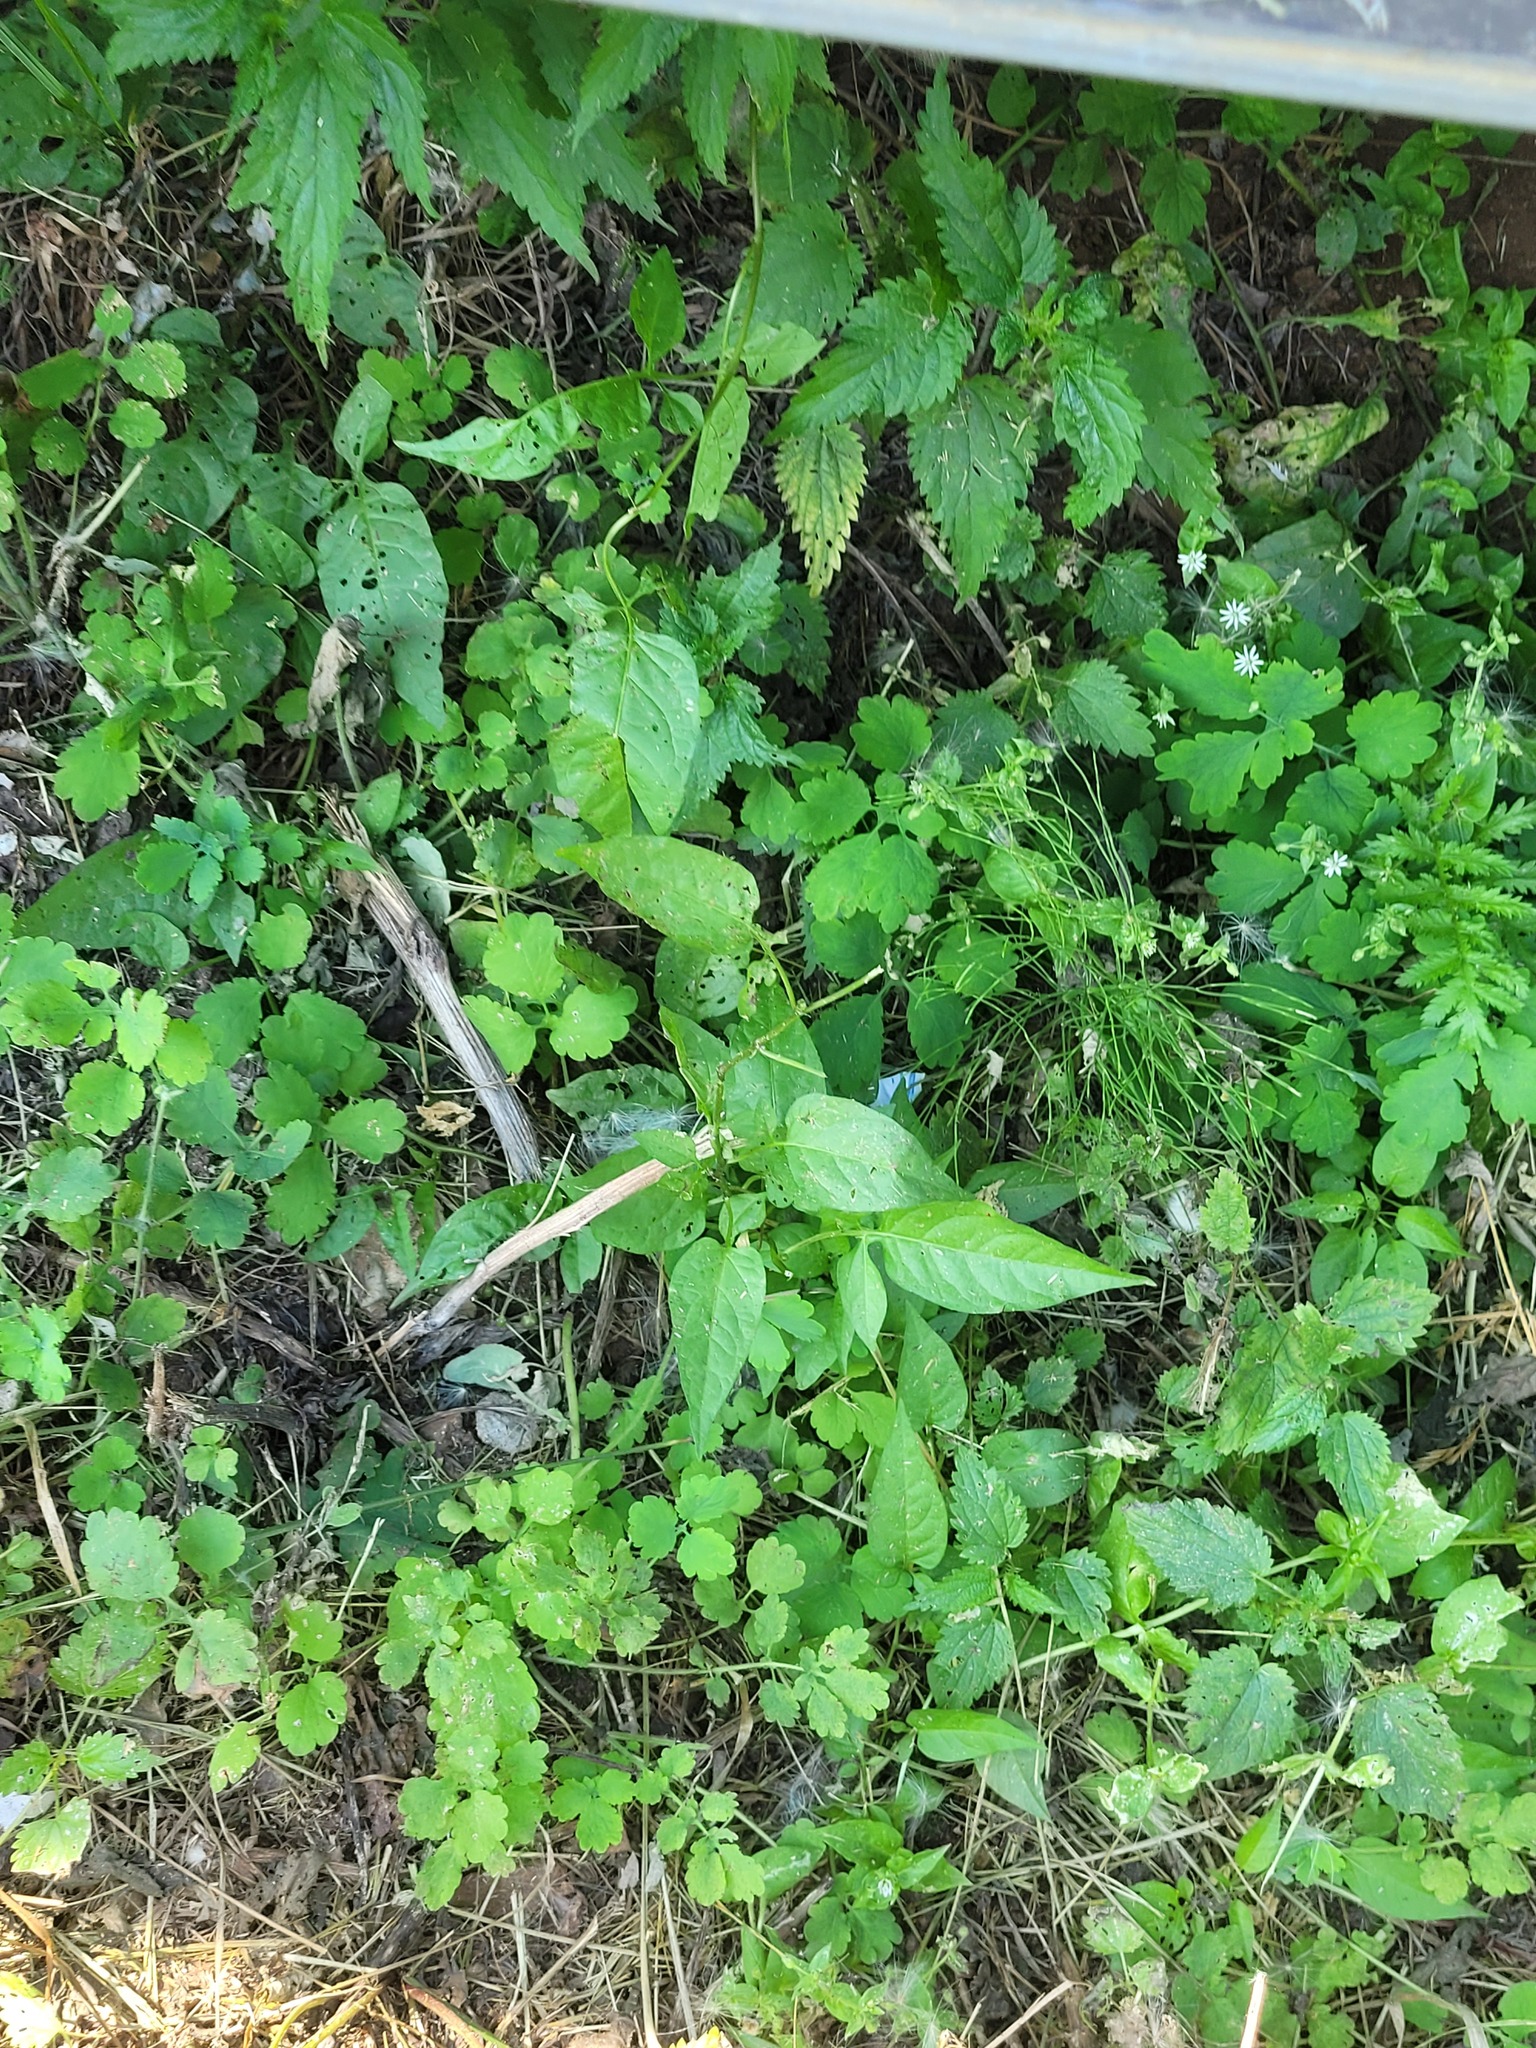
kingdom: Plantae
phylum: Tracheophyta
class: Magnoliopsida
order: Solanales
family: Solanaceae
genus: Solanum
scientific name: Solanum dulcamara
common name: Climbing nightshade
